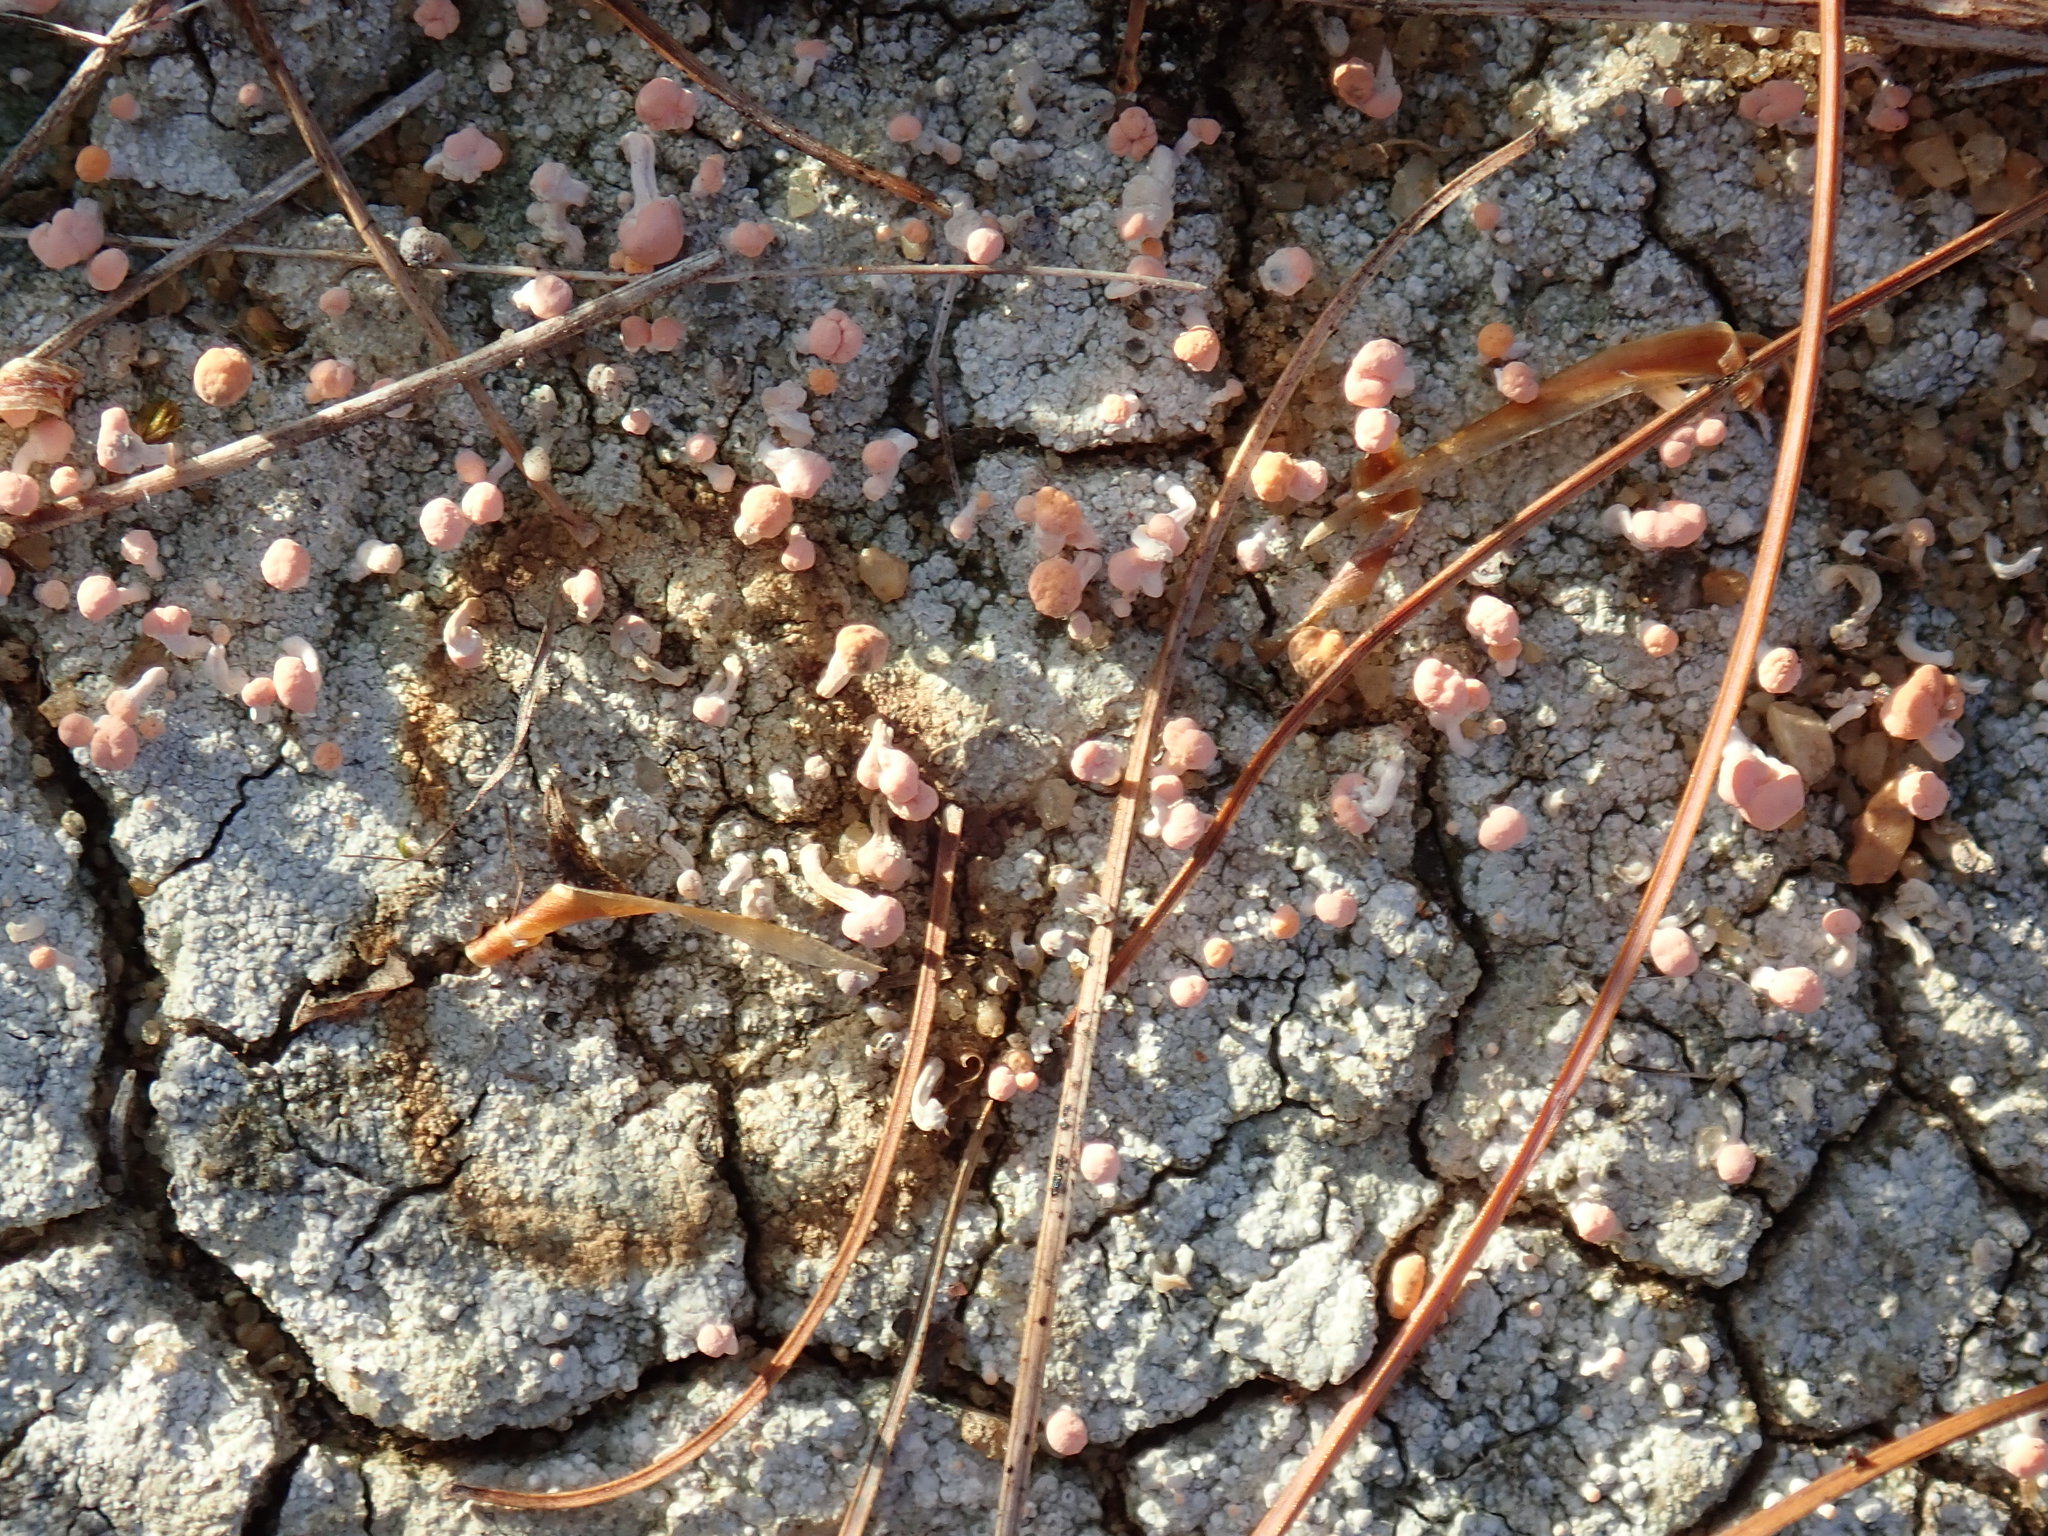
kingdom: Fungi
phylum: Ascomycota
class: Lecanoromycetes
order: Pertusariales
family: Icmadophilaceae
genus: Dibaeis
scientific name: Dibaeis baeomyces
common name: Pink earth lichen
